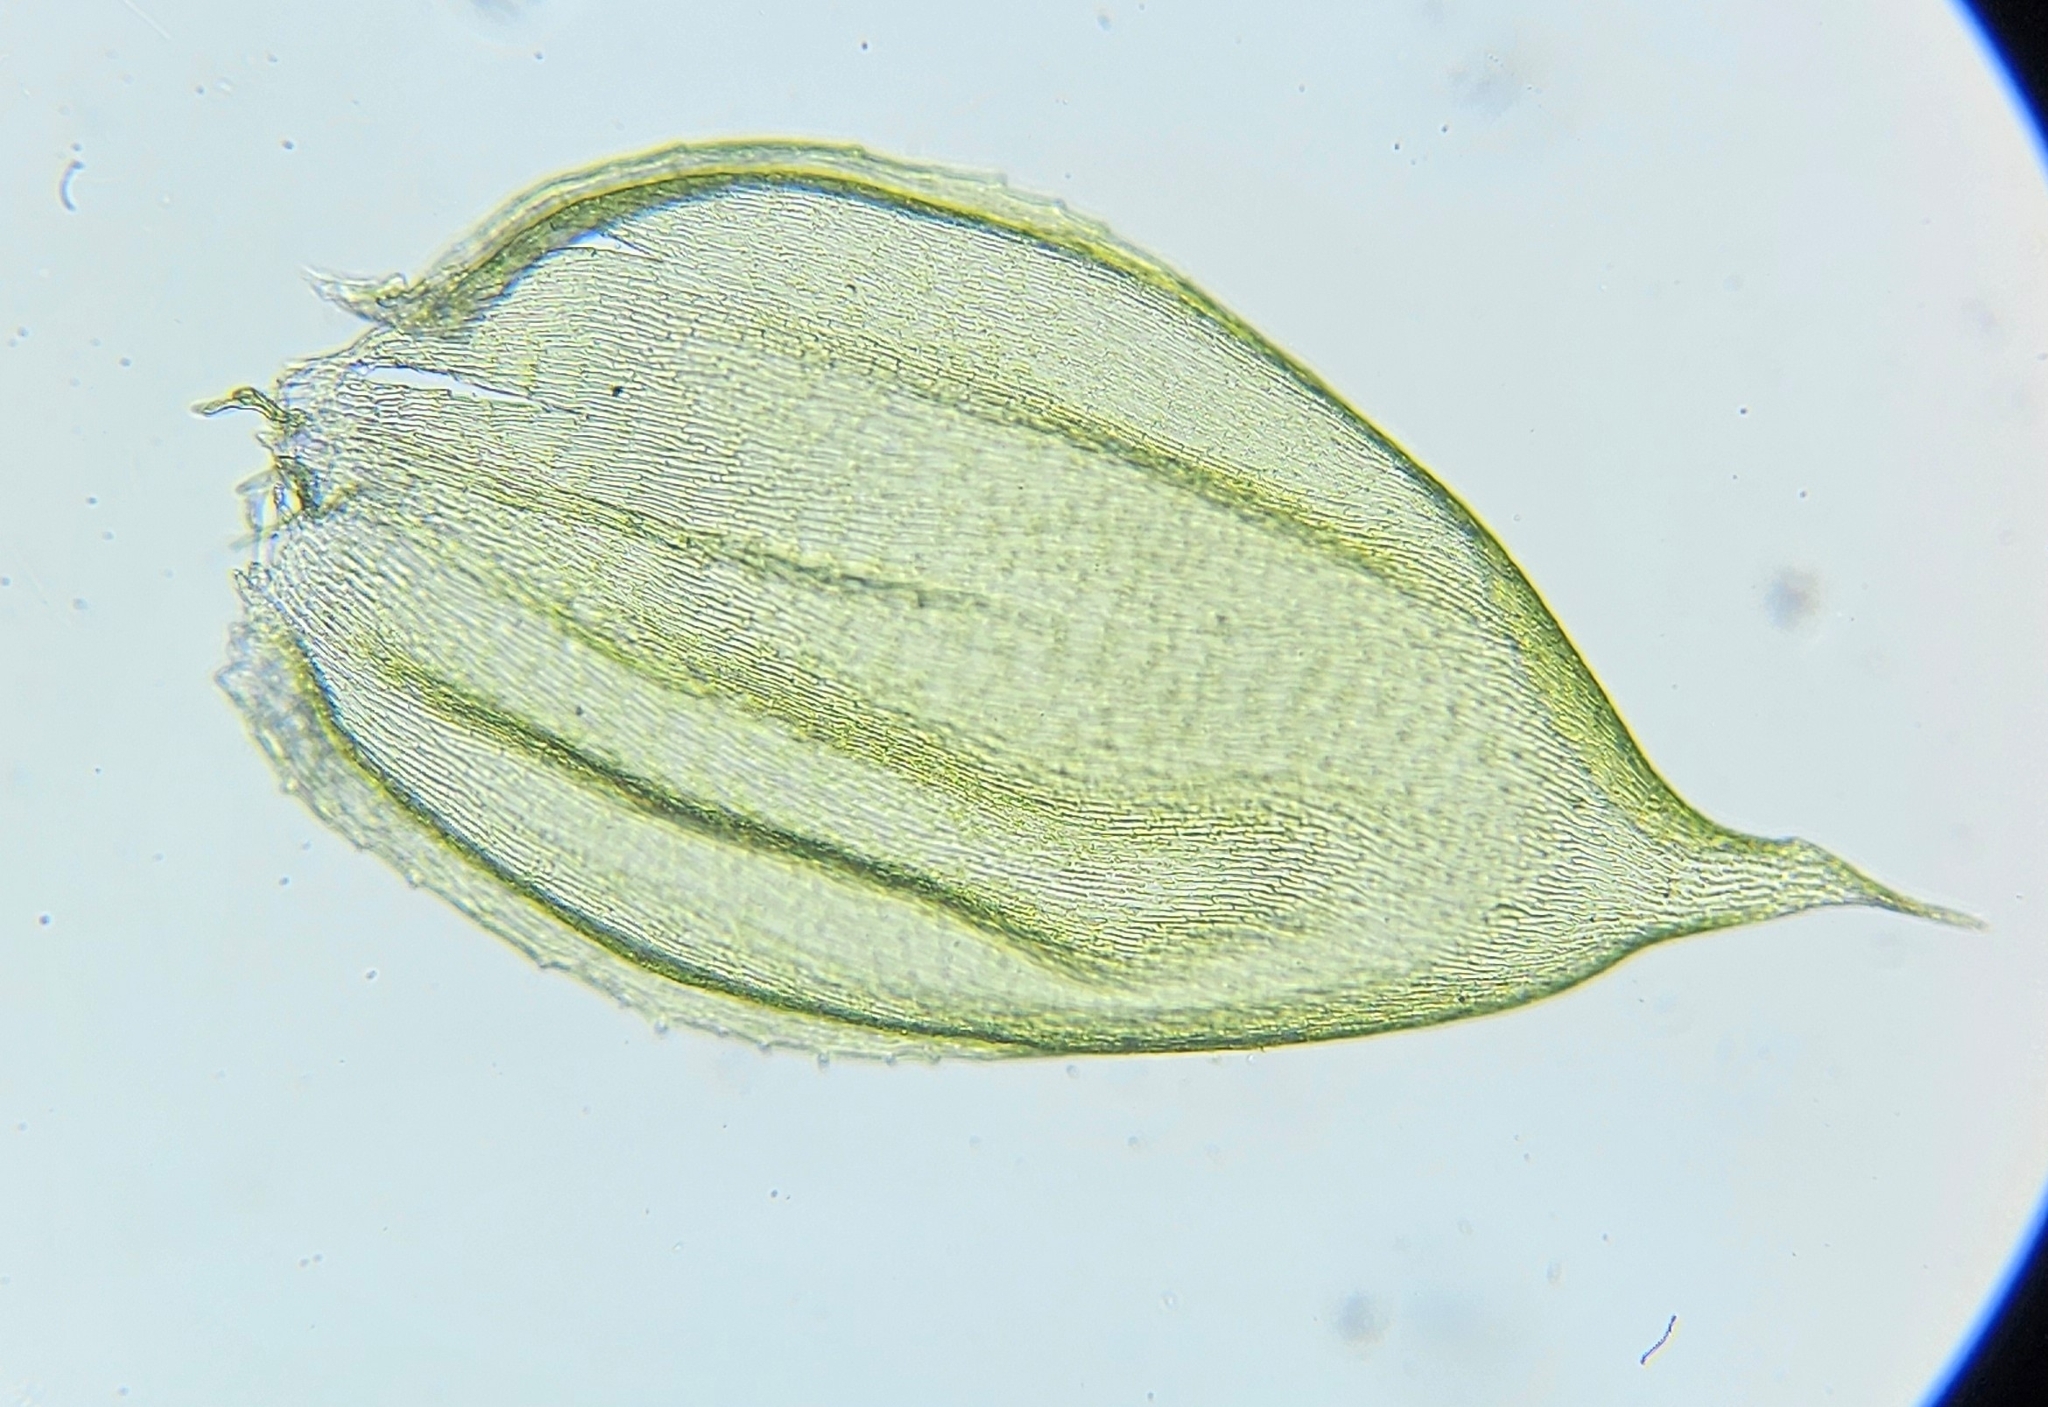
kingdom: Plantae
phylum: Bryophyta
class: Bryopsida
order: Hypnales
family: Hylocomiaceae
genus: Hylocomium
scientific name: Hylocomium splendens
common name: Stairstep moss
